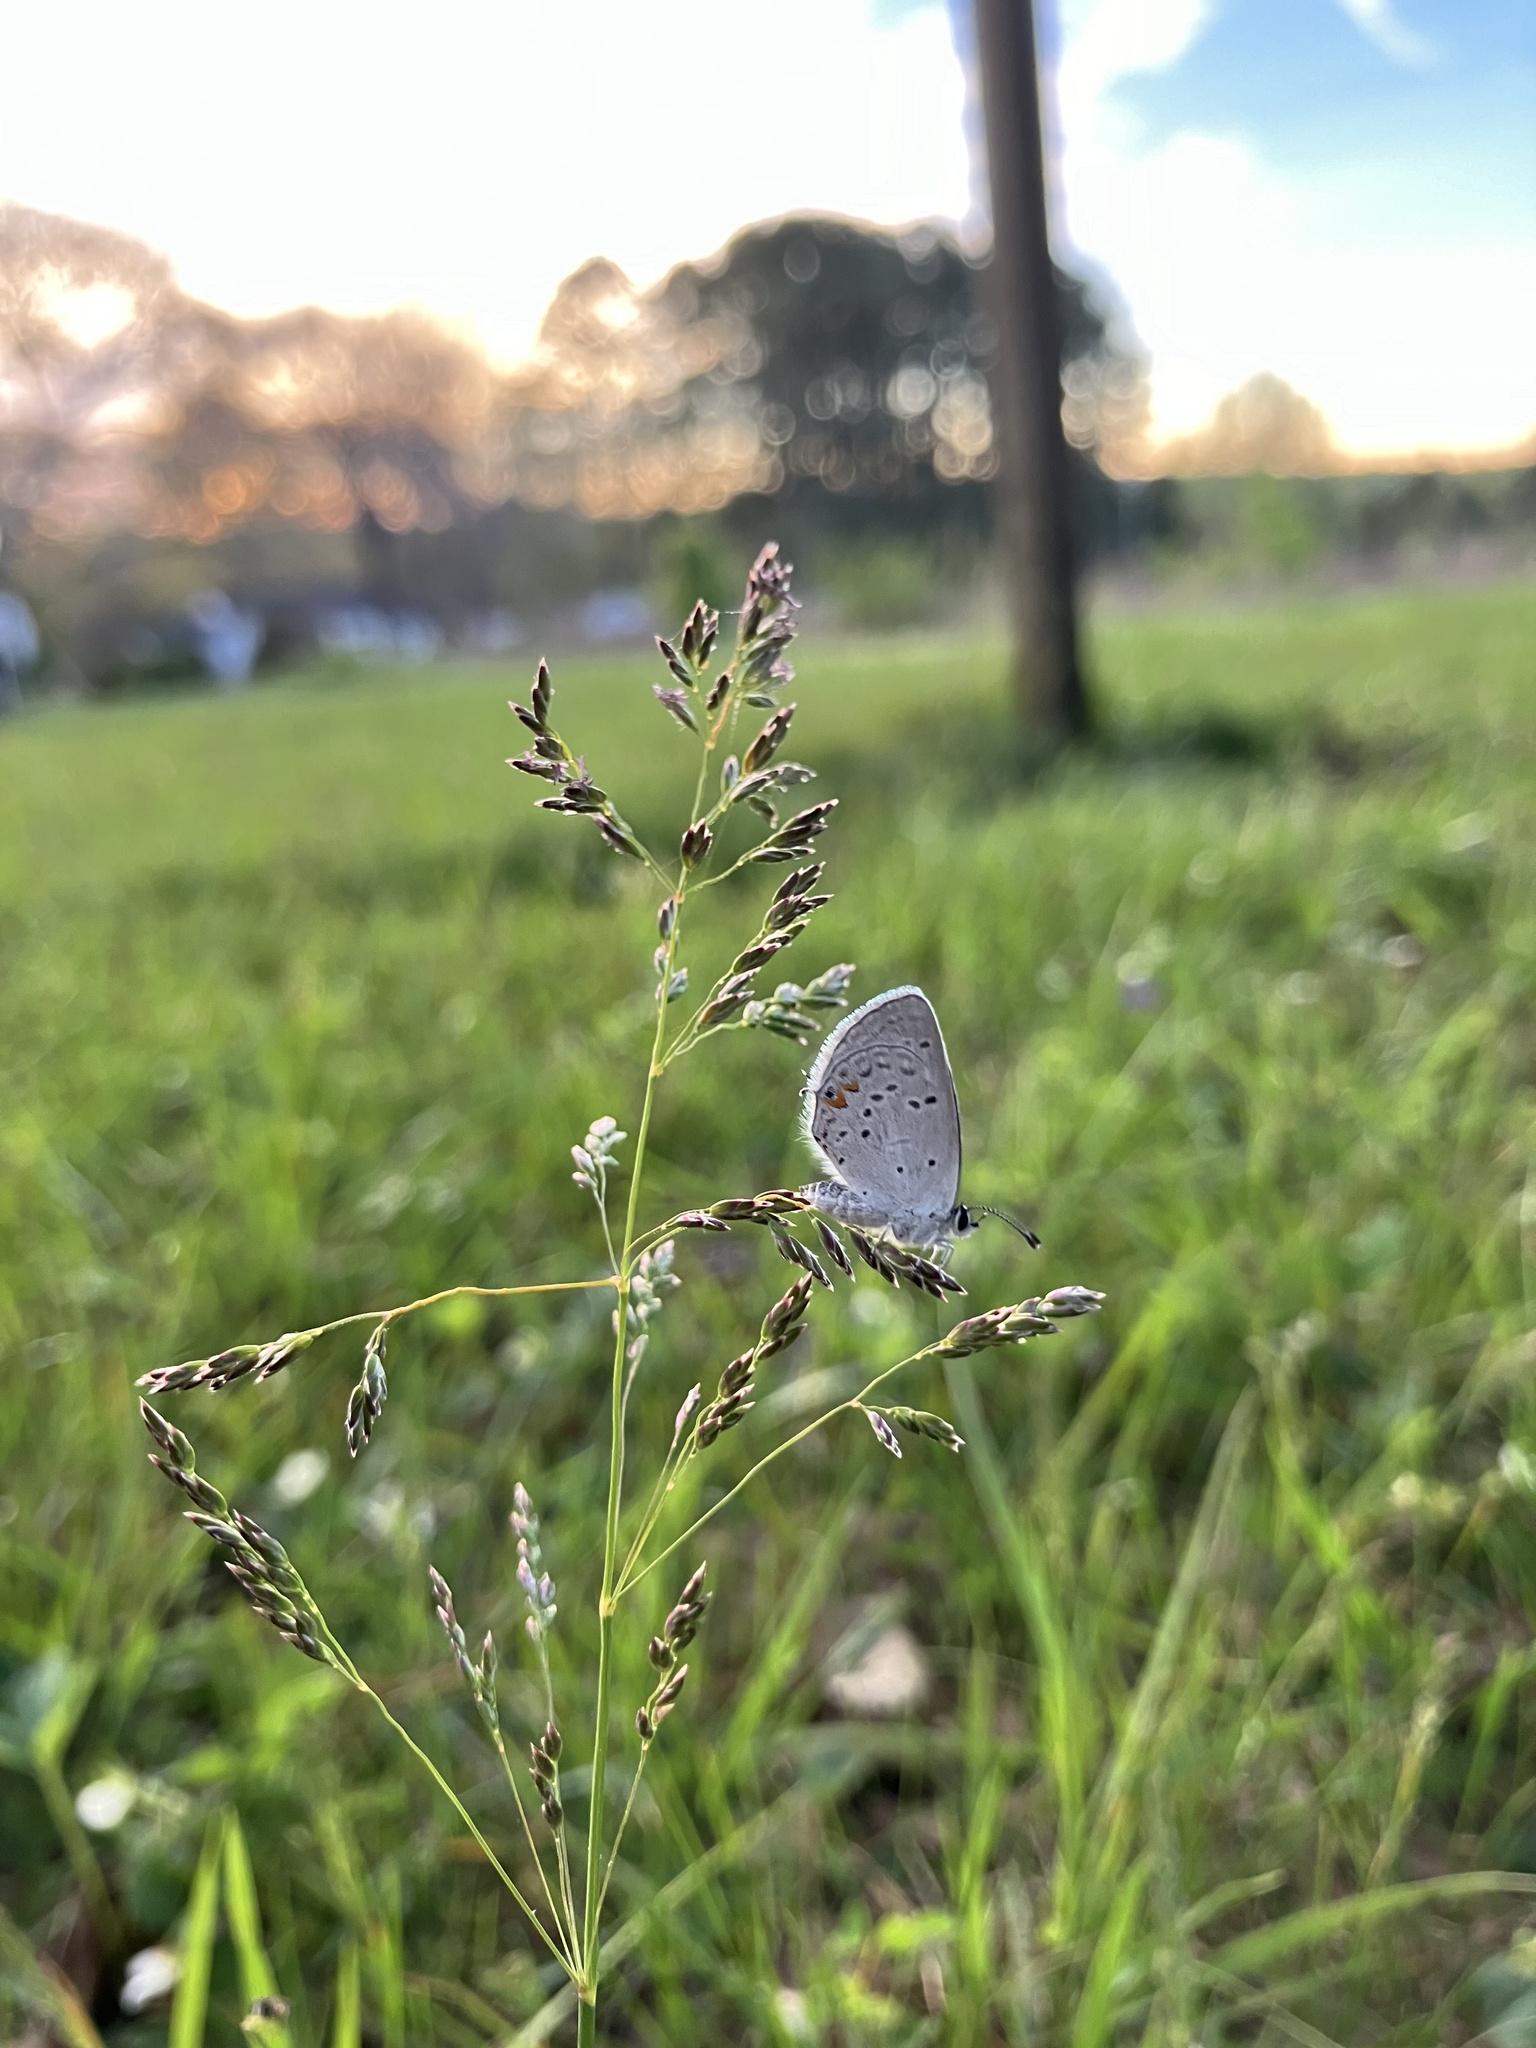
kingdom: Animalia
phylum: Arthropoda
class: Insecta
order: Lepidoptera
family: Lycaenidae
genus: Elkalyce
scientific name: Elkalyce comyntas
